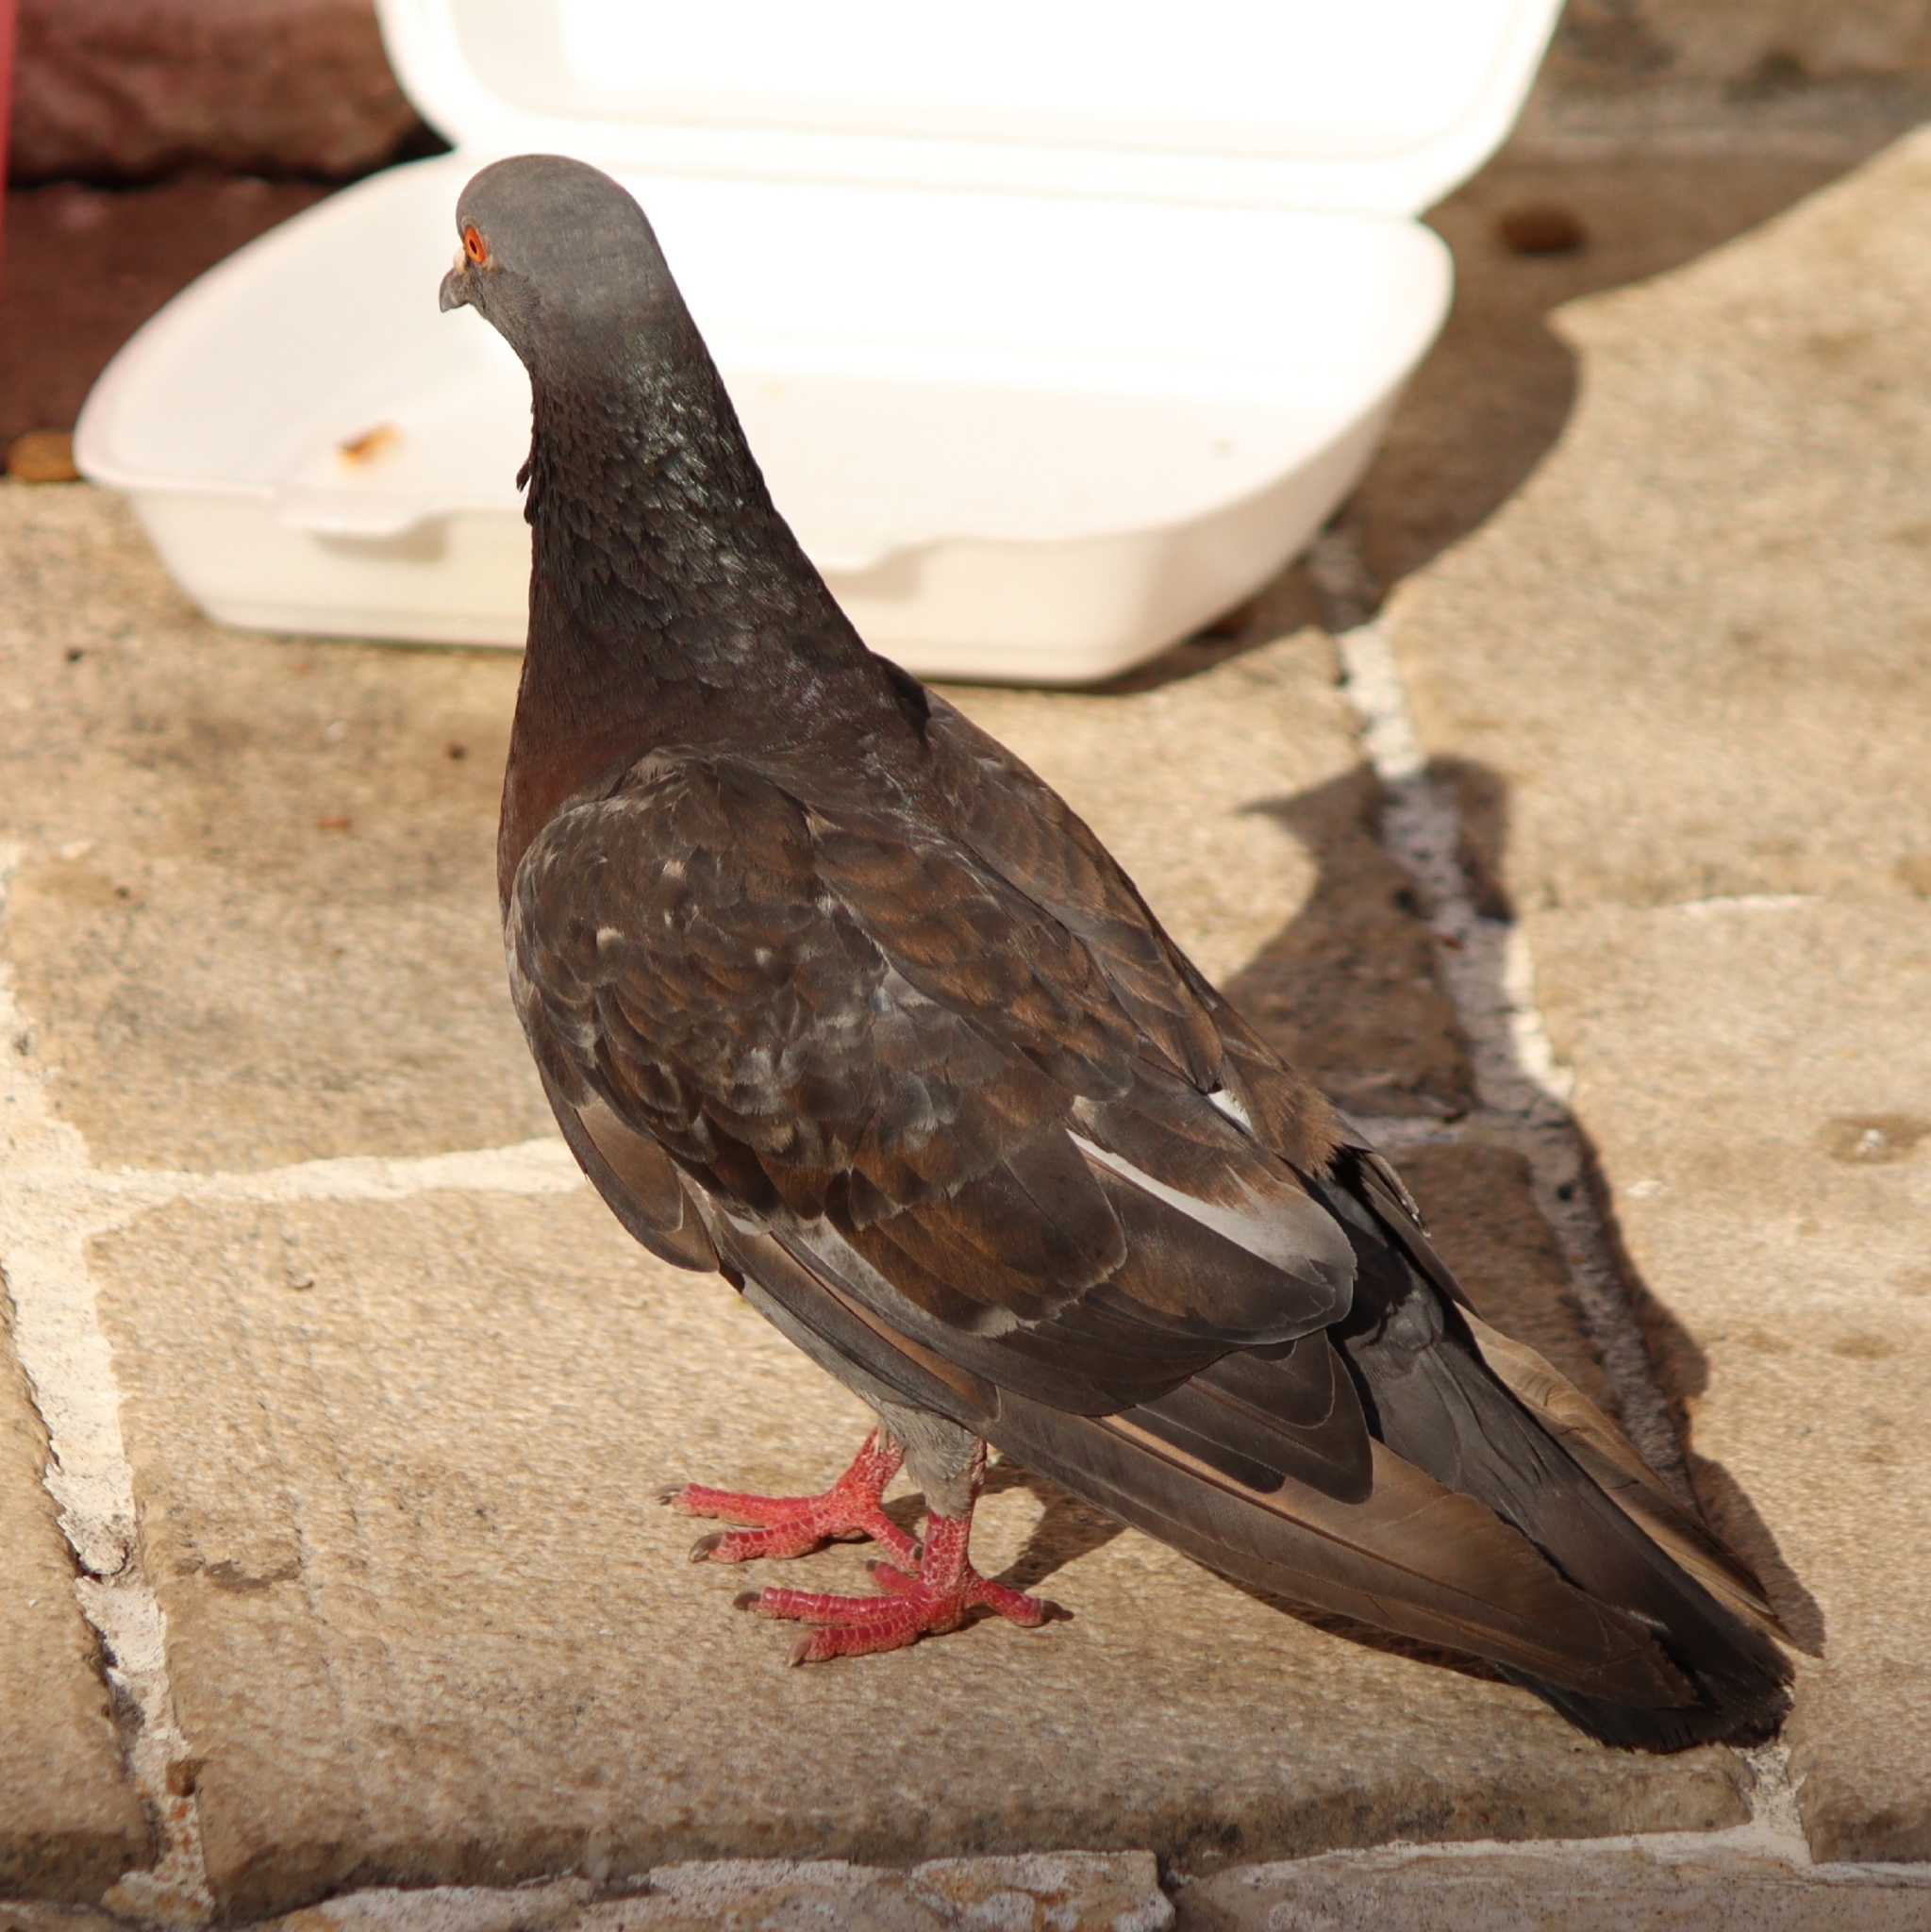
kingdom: Animalia
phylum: Chordata
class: Aves
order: Columbiformes
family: Columbidae
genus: Columba
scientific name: Columba livia
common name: Rock pigeon
